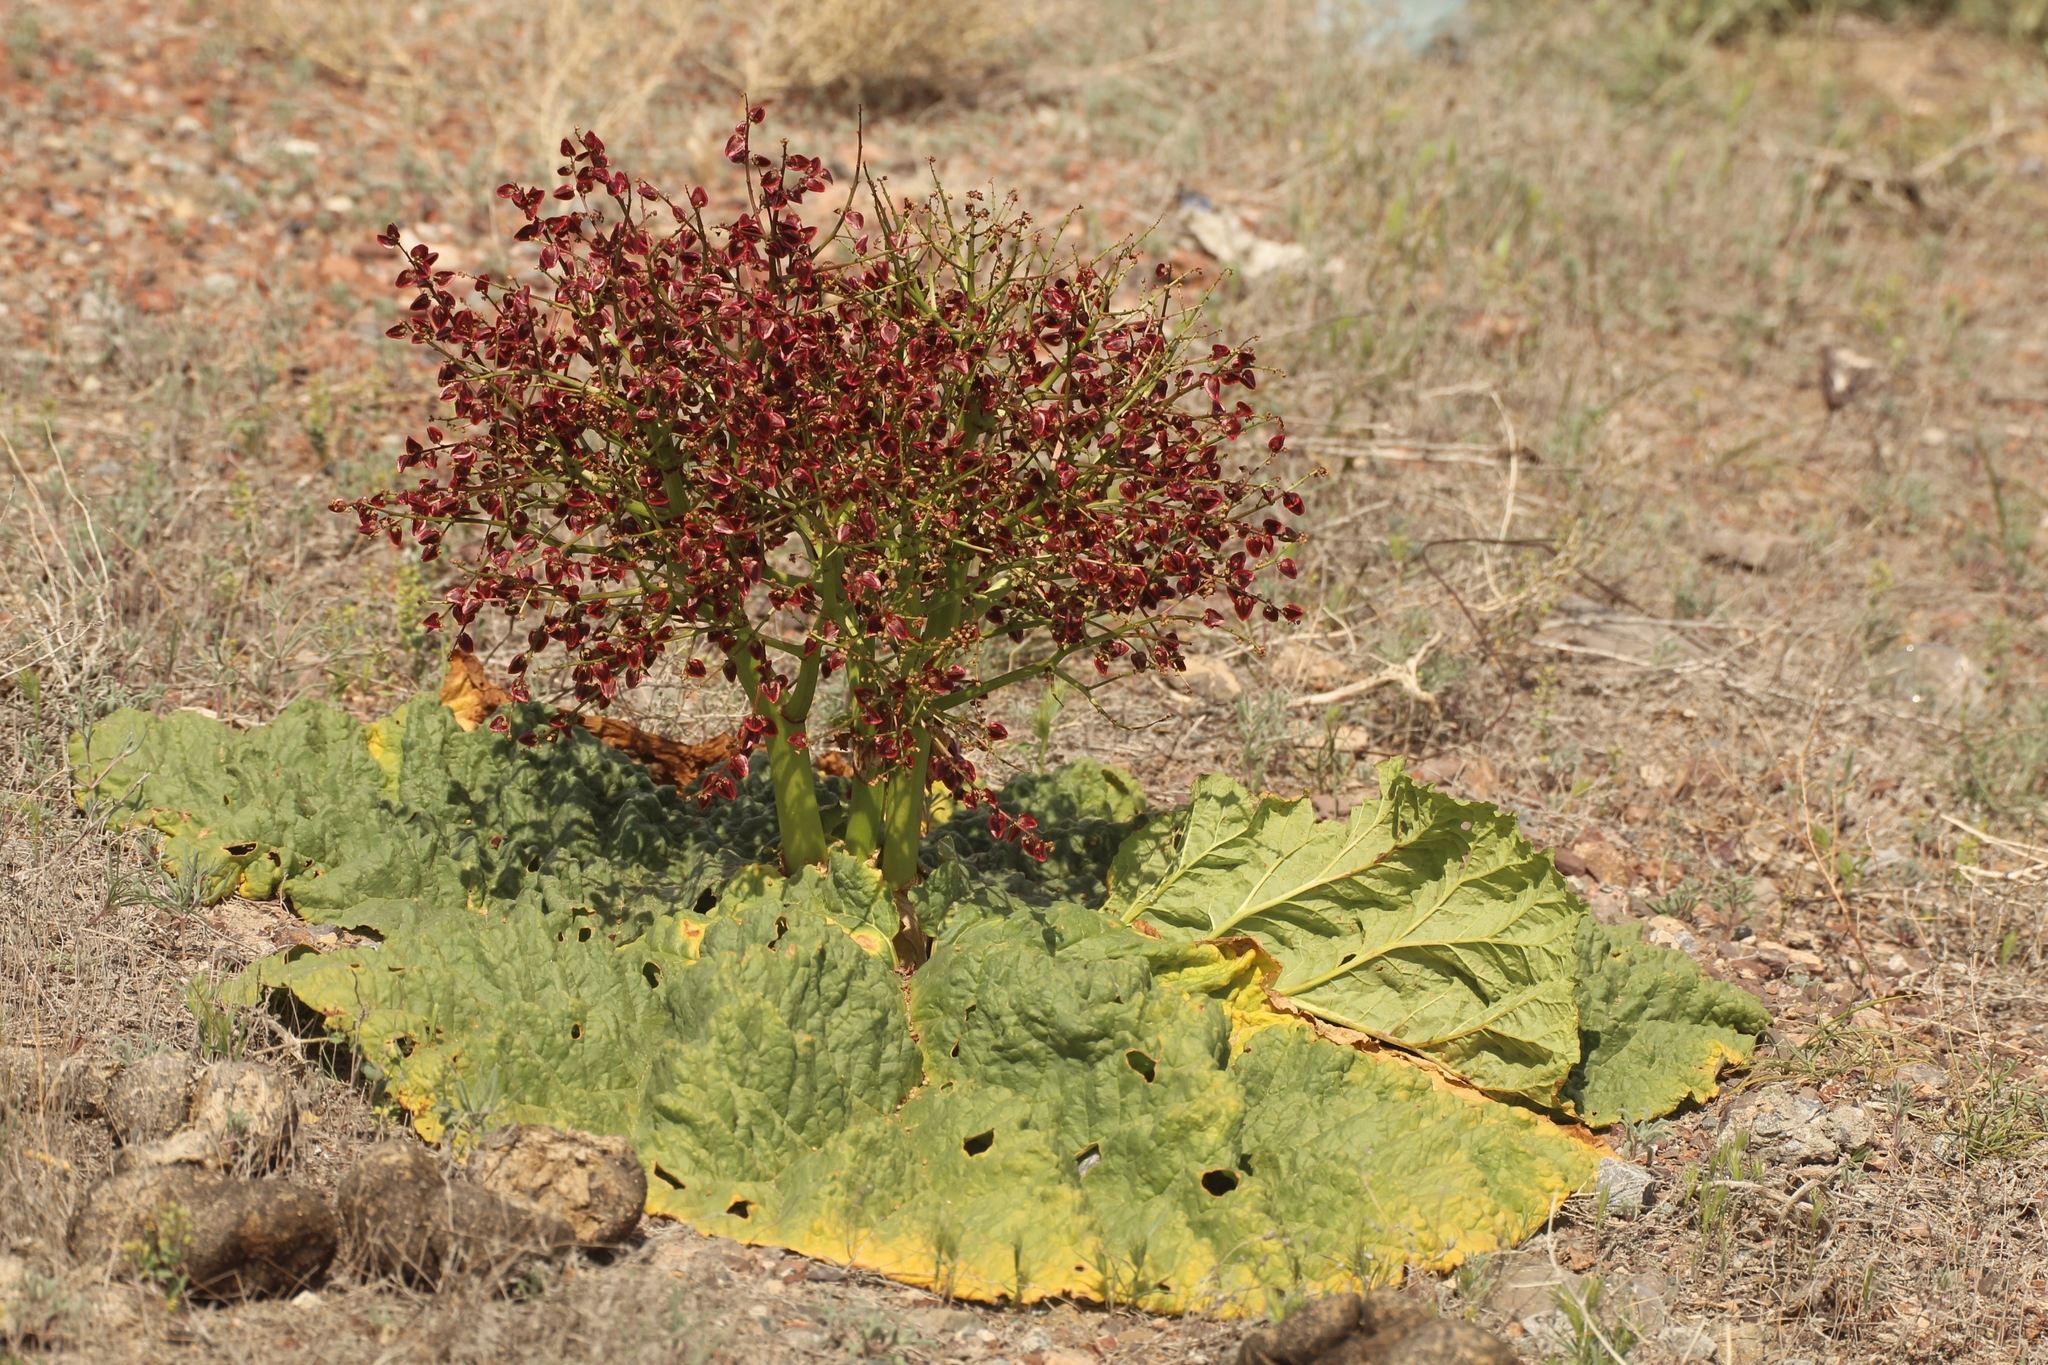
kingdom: Plantae
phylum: Tracheophyta
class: Magnoliopsida
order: Caryophyllales
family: Polygonaceae
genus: Rheum
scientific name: Rheum tataricum
